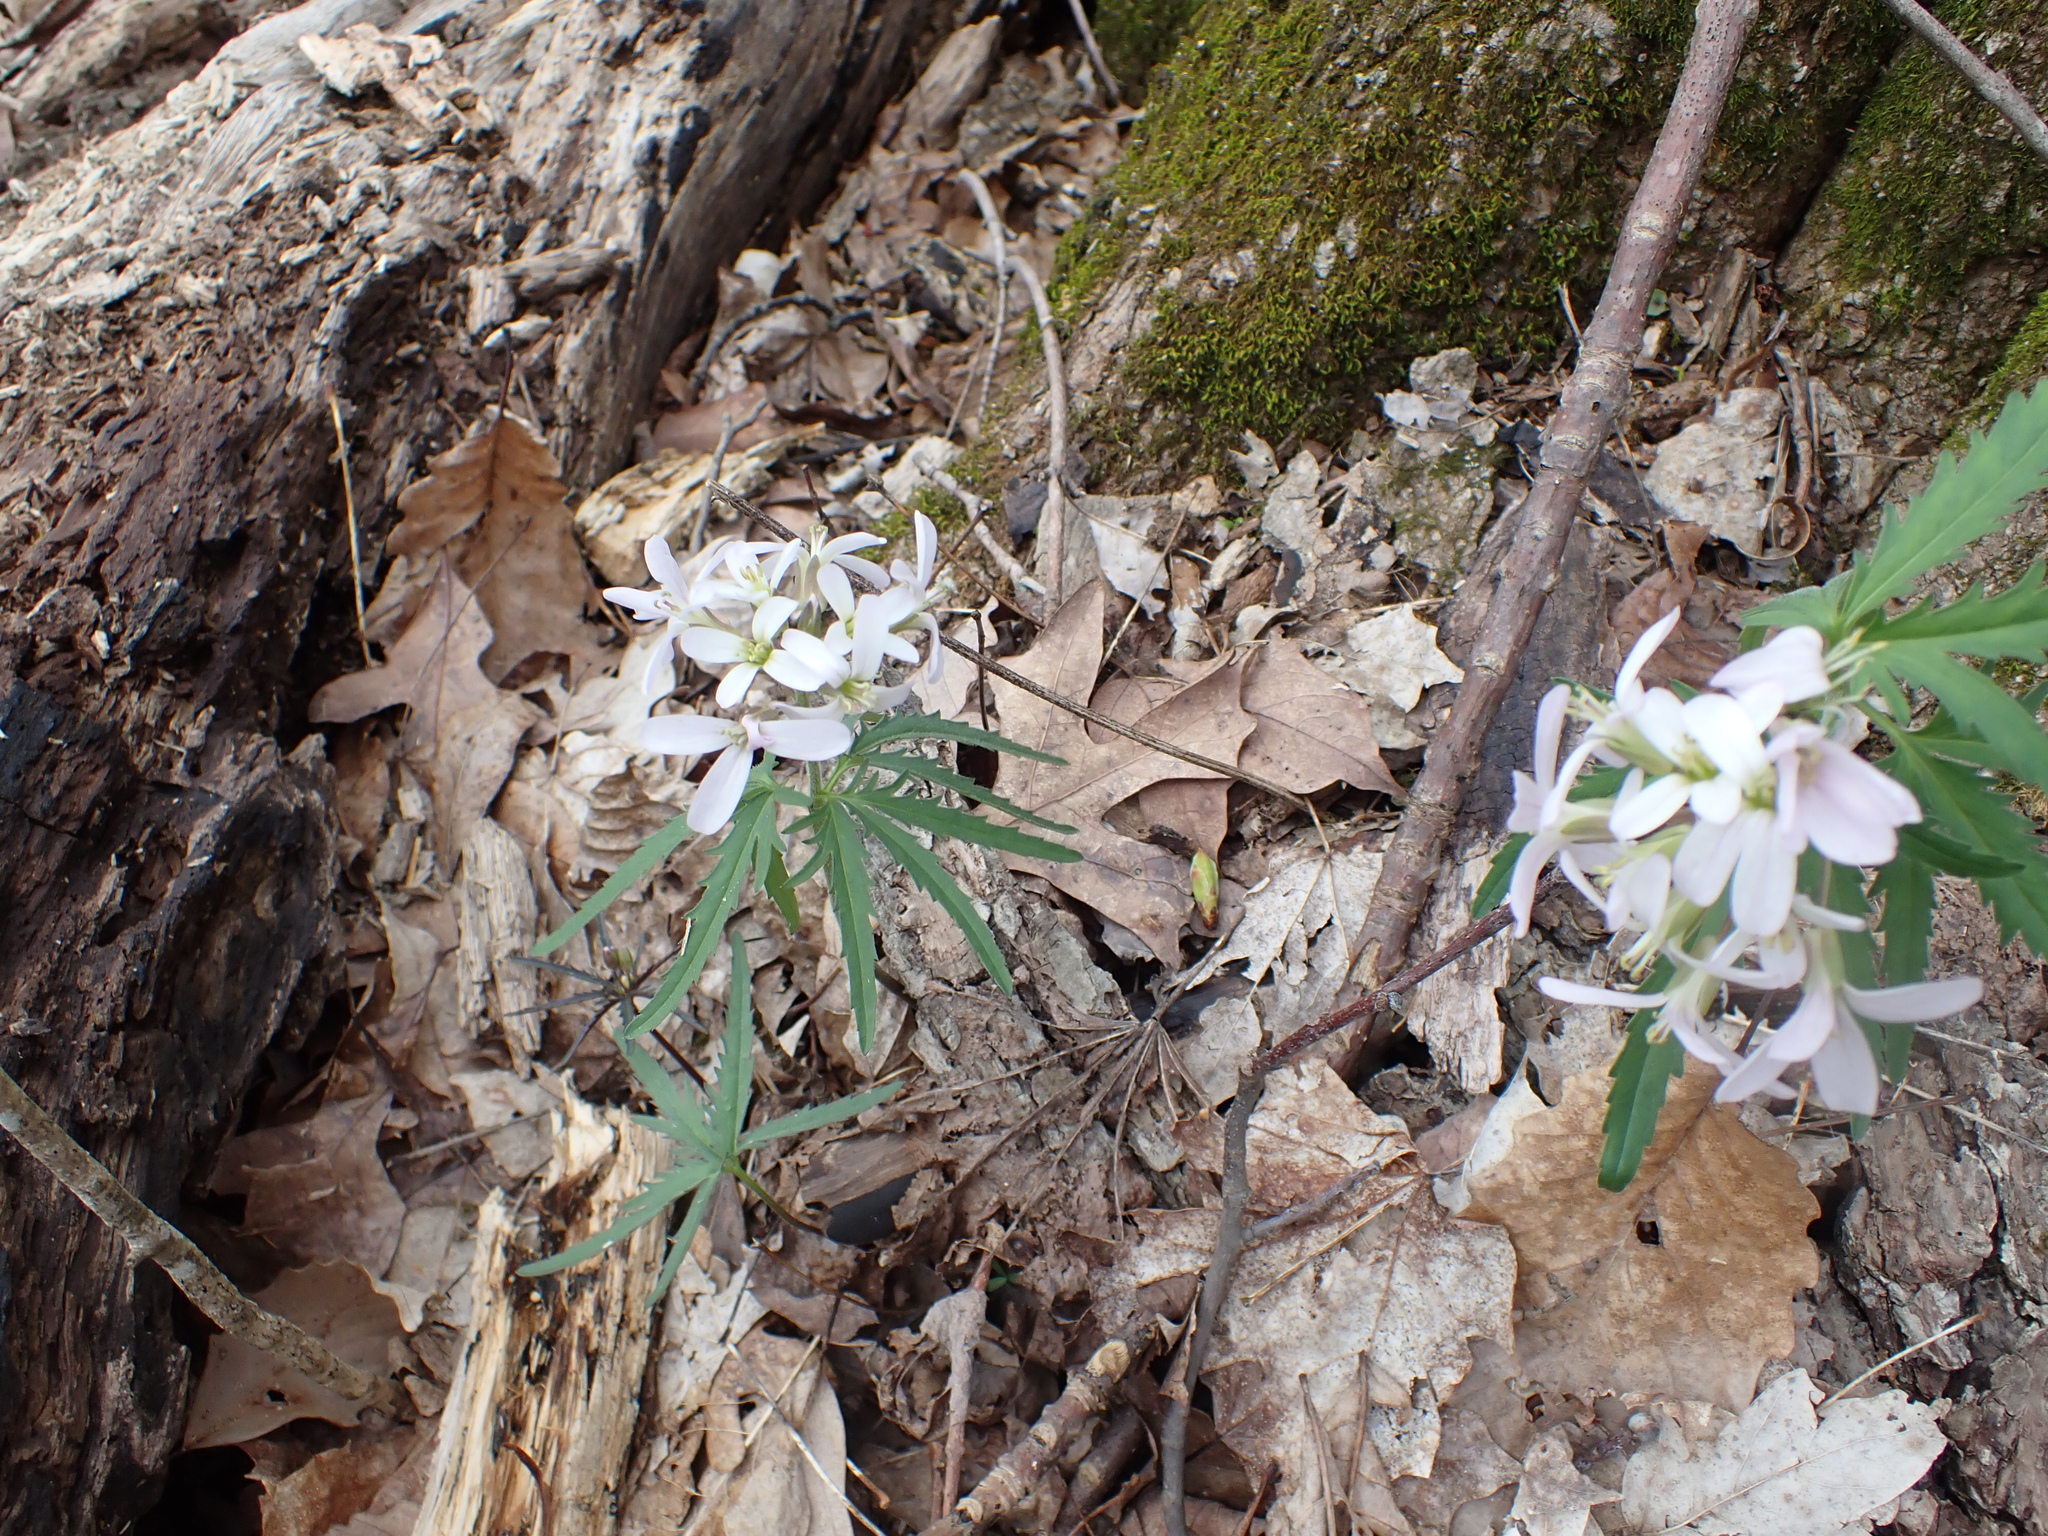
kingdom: Plantae
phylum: Tracheophyta
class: Magnoliopsida
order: Brassicales
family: Brassicaceae
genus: Cardamine
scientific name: Cardamine concatenata
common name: Cut-leaf toothcup
